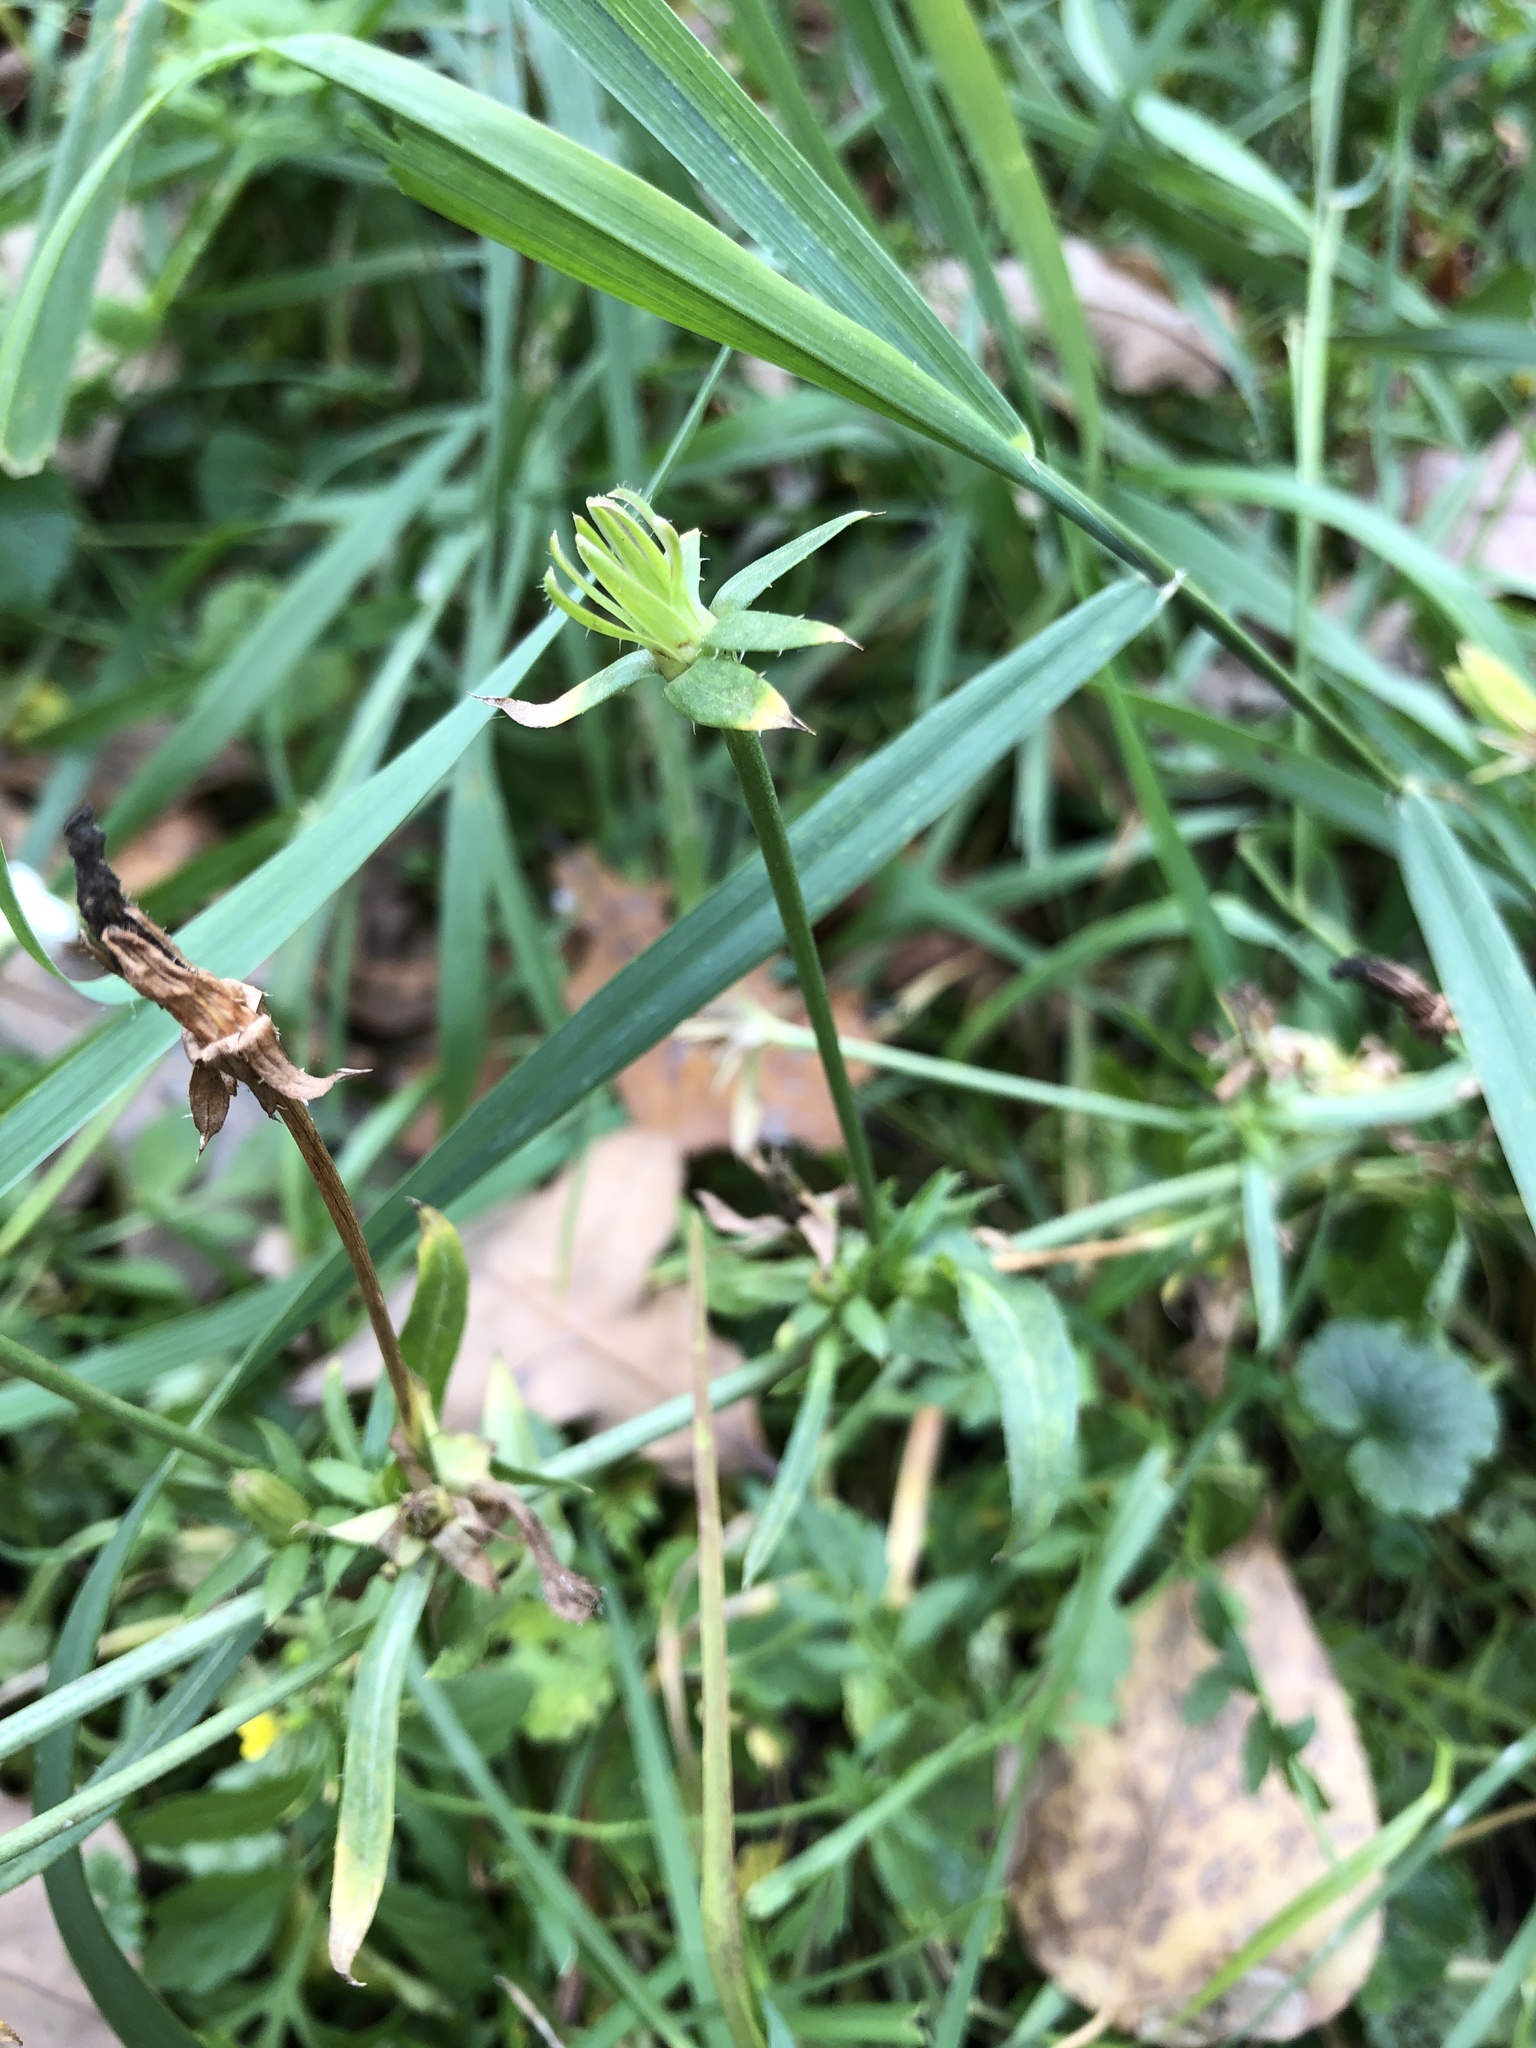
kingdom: Plantae
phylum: Tracheophyta
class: Magnoliopsida
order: Asterales
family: Asteraceae
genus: Cichorium
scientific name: Cichorium intybus
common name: Chicory
